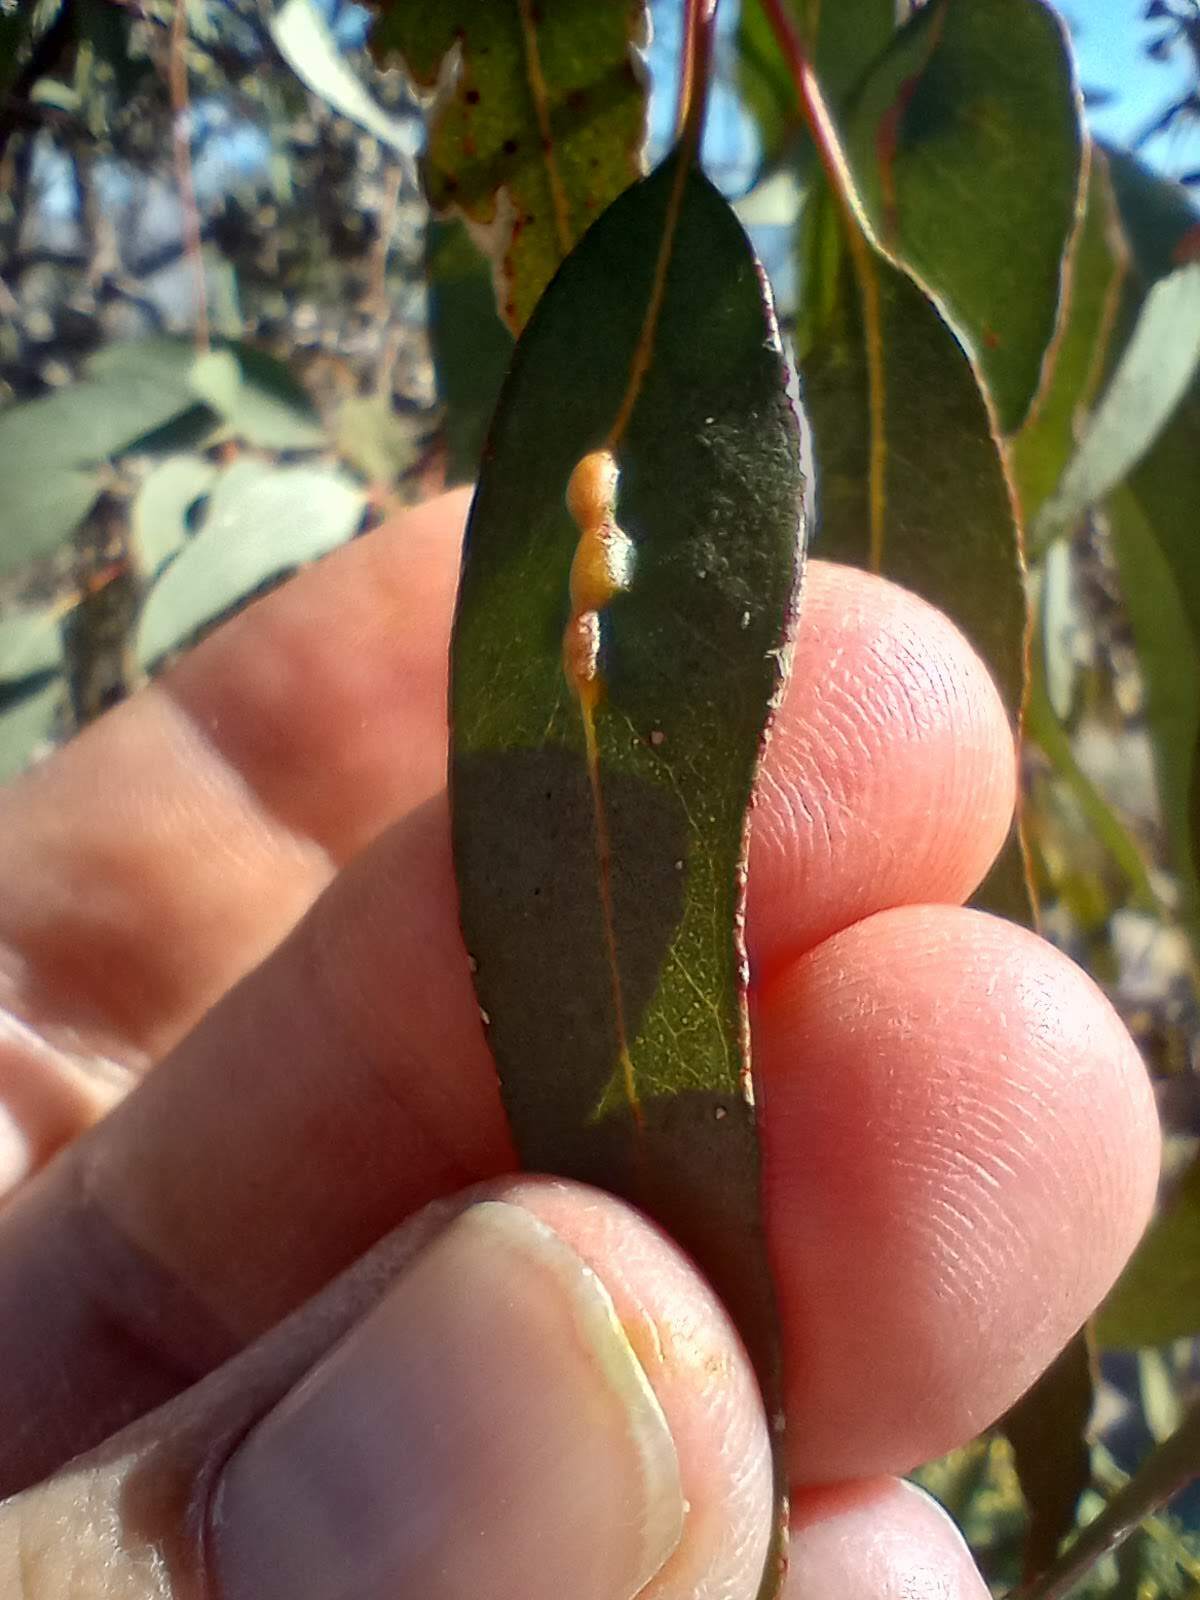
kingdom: Animalia
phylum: Arthropoda
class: Insecta
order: Hymenoptera
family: Eulophidae
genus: Leptocybe
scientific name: Leptocybe invasa
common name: Gall wasp
